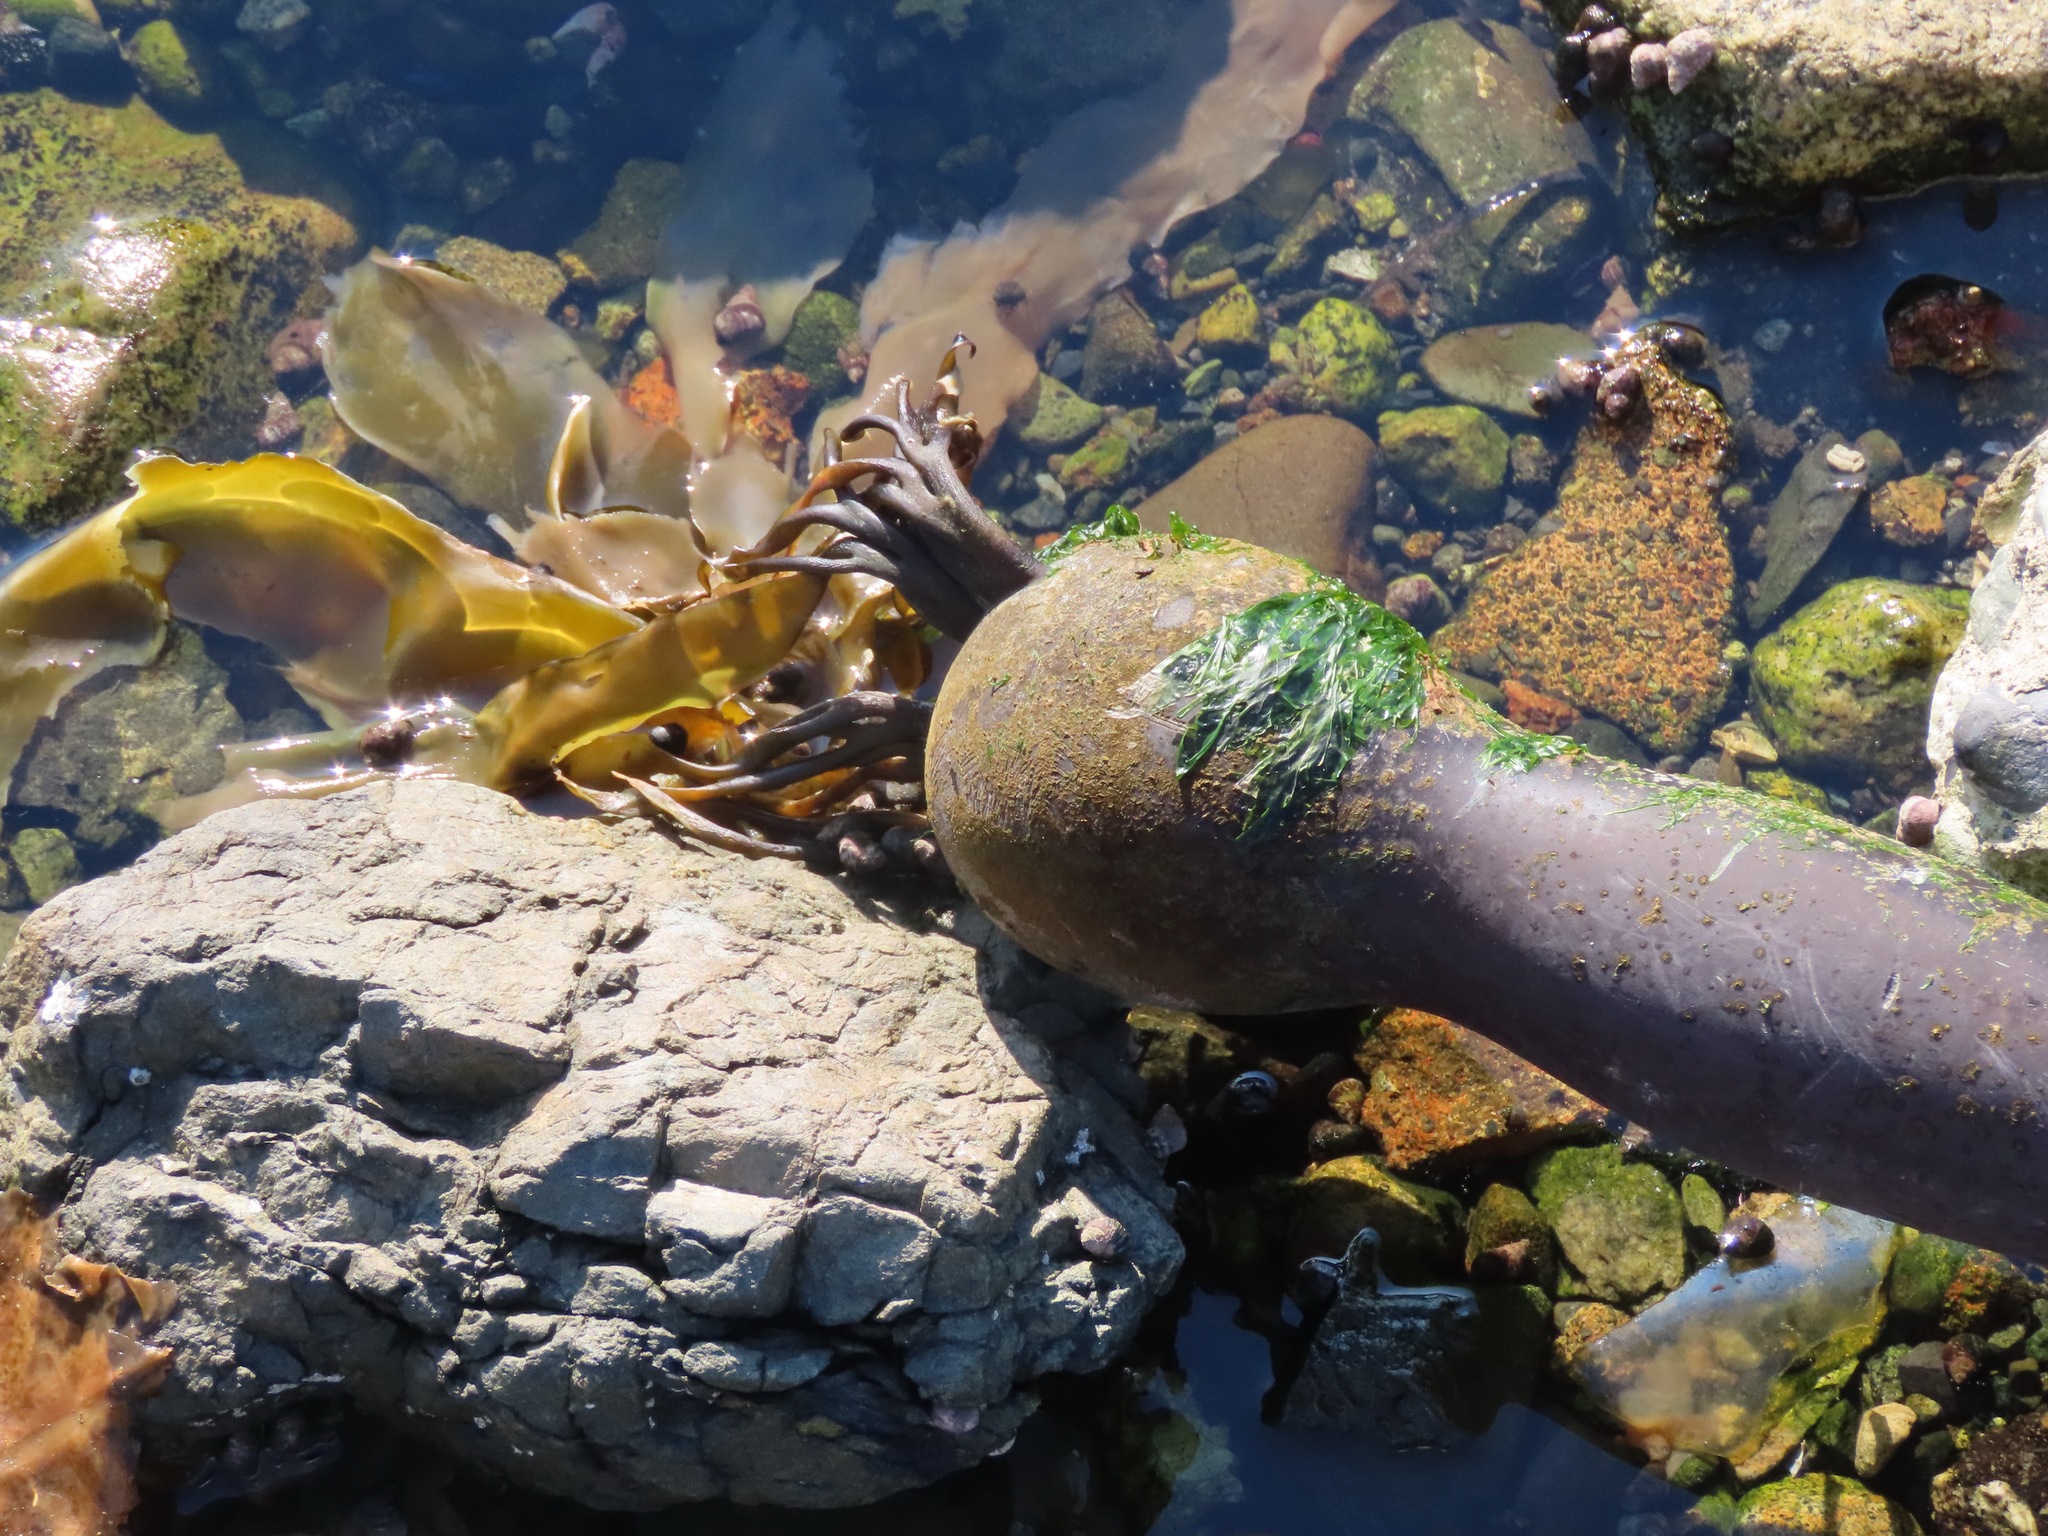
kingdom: Chromista
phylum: Ochrophyta
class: Phaeophyceae
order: Laminariales
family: Laminariaceae
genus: Nereocystis
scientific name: Nereocystis luetkeana
